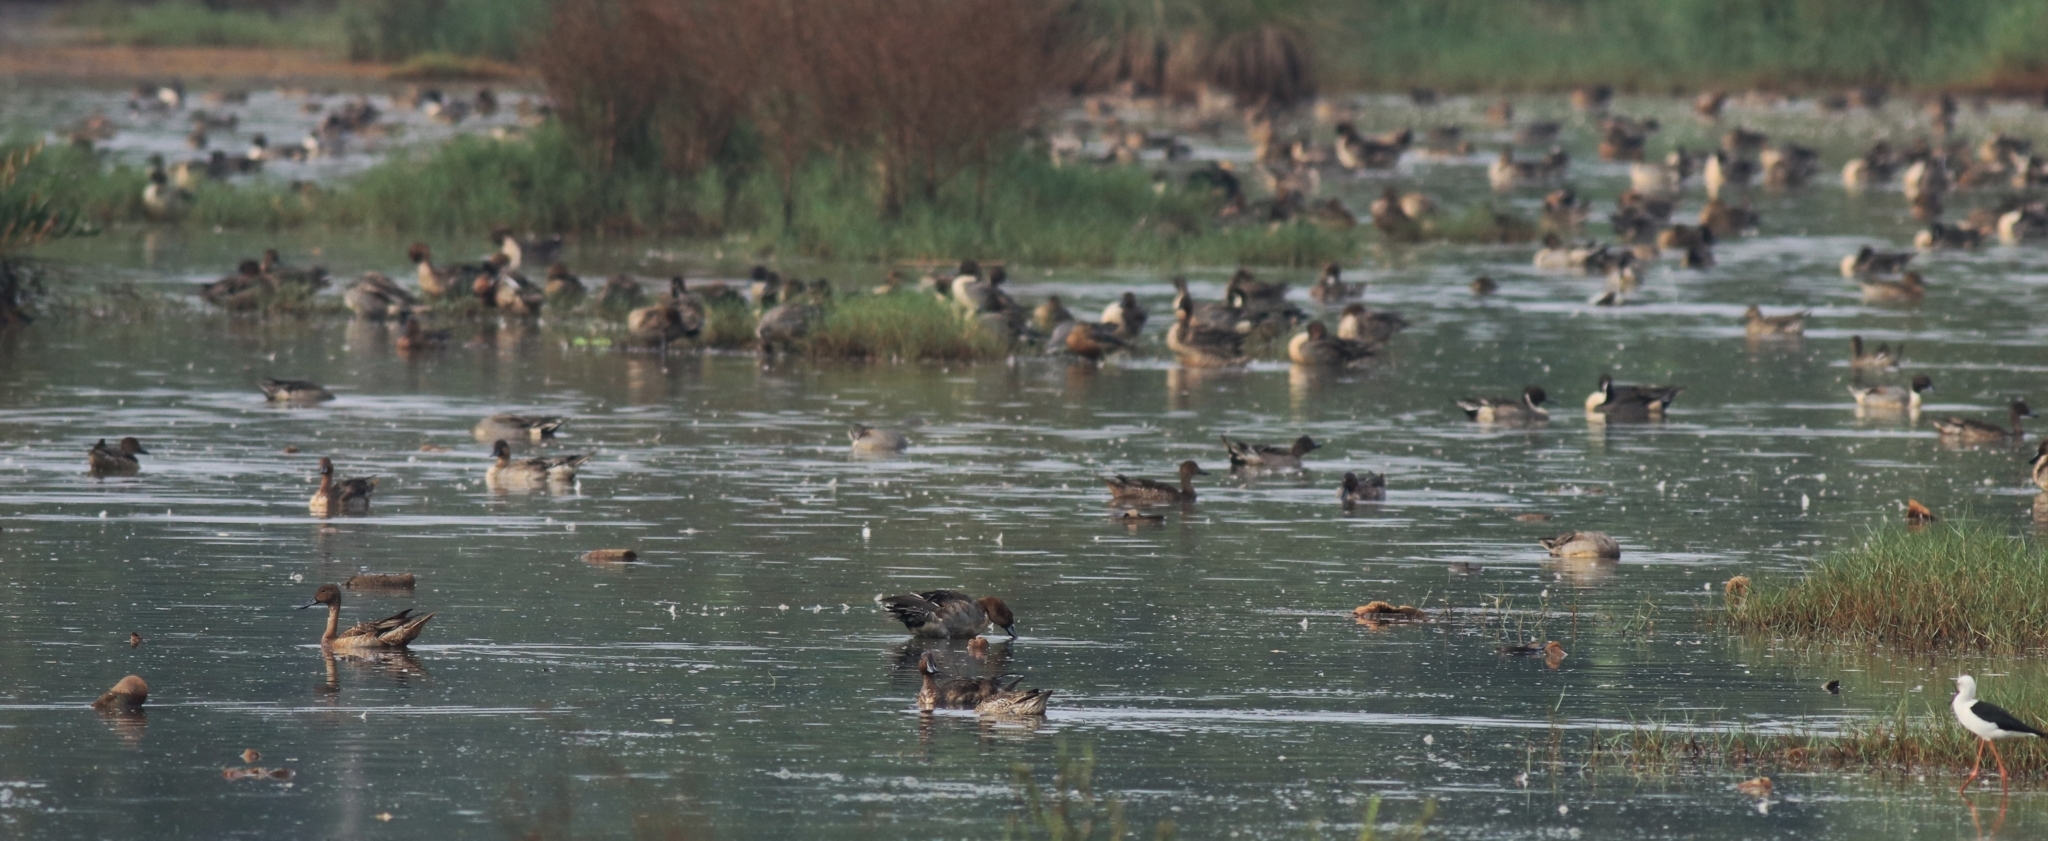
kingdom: Animalia
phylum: Chordata
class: Aves
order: Anseriformes
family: Anatidae
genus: Anas
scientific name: Anas acuta
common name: Northern pintail
